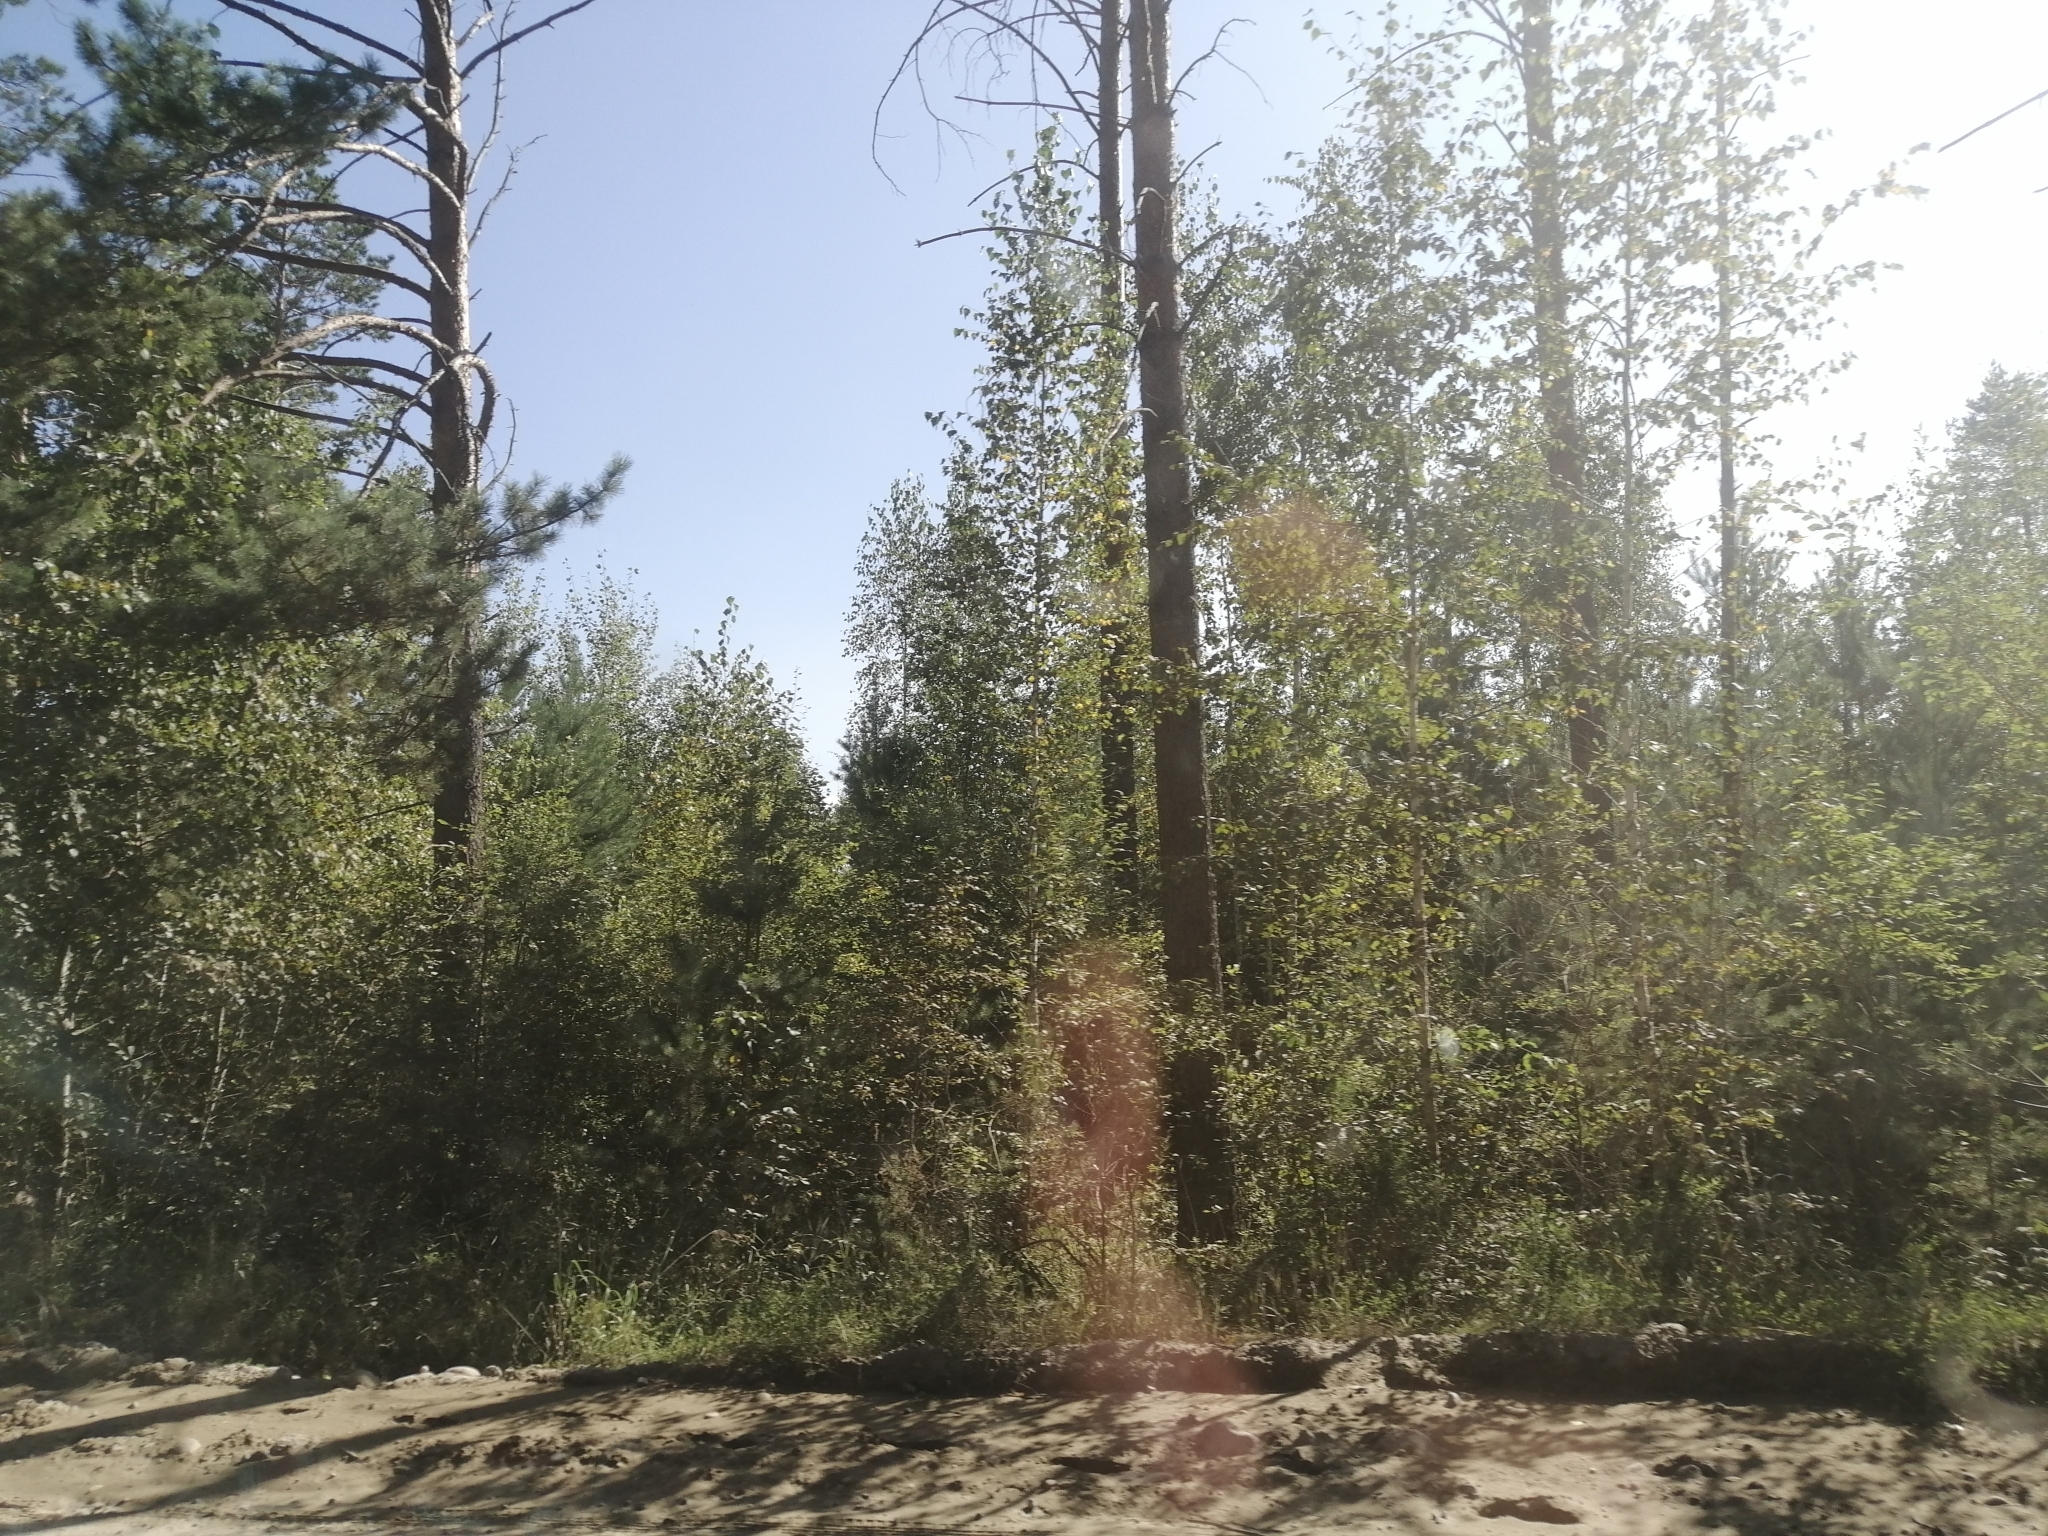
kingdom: Plantae
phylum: Tracheophyta
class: Pinopsida
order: Pinales
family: Pinaceae
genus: Pinus
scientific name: Pinus sylvestris
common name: Scots pine
